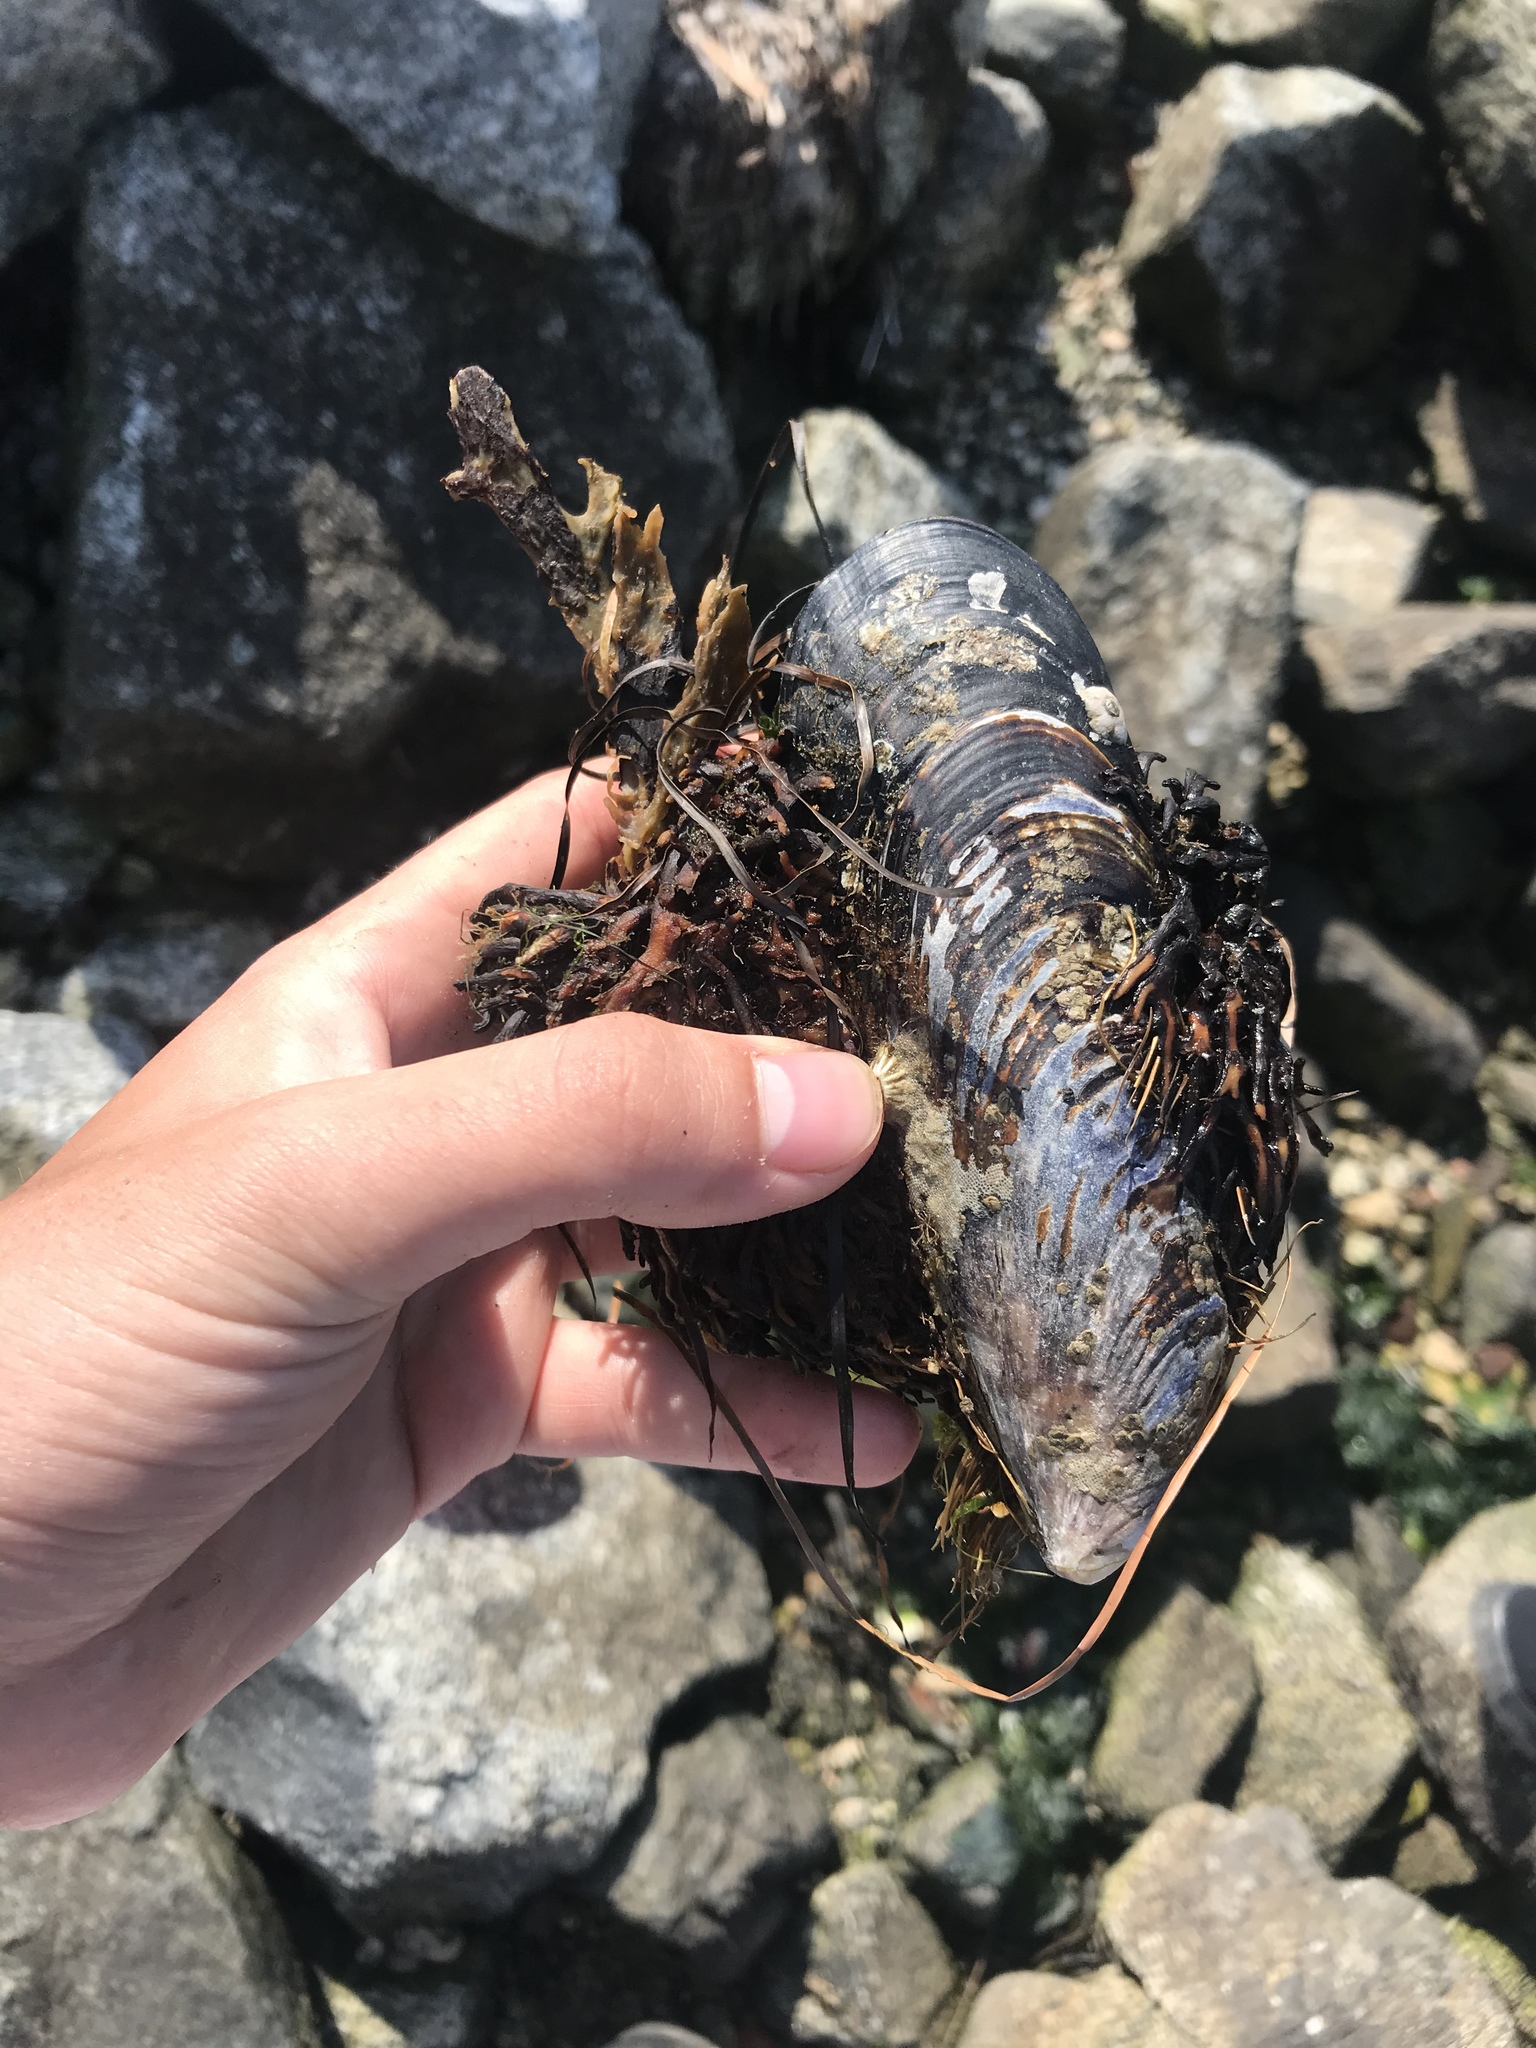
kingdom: Animalia
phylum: Mollusca
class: Bivalvia
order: Mytilida
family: Mytilidae
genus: Mytilus
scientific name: Mytilus californianus
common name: California mussel
